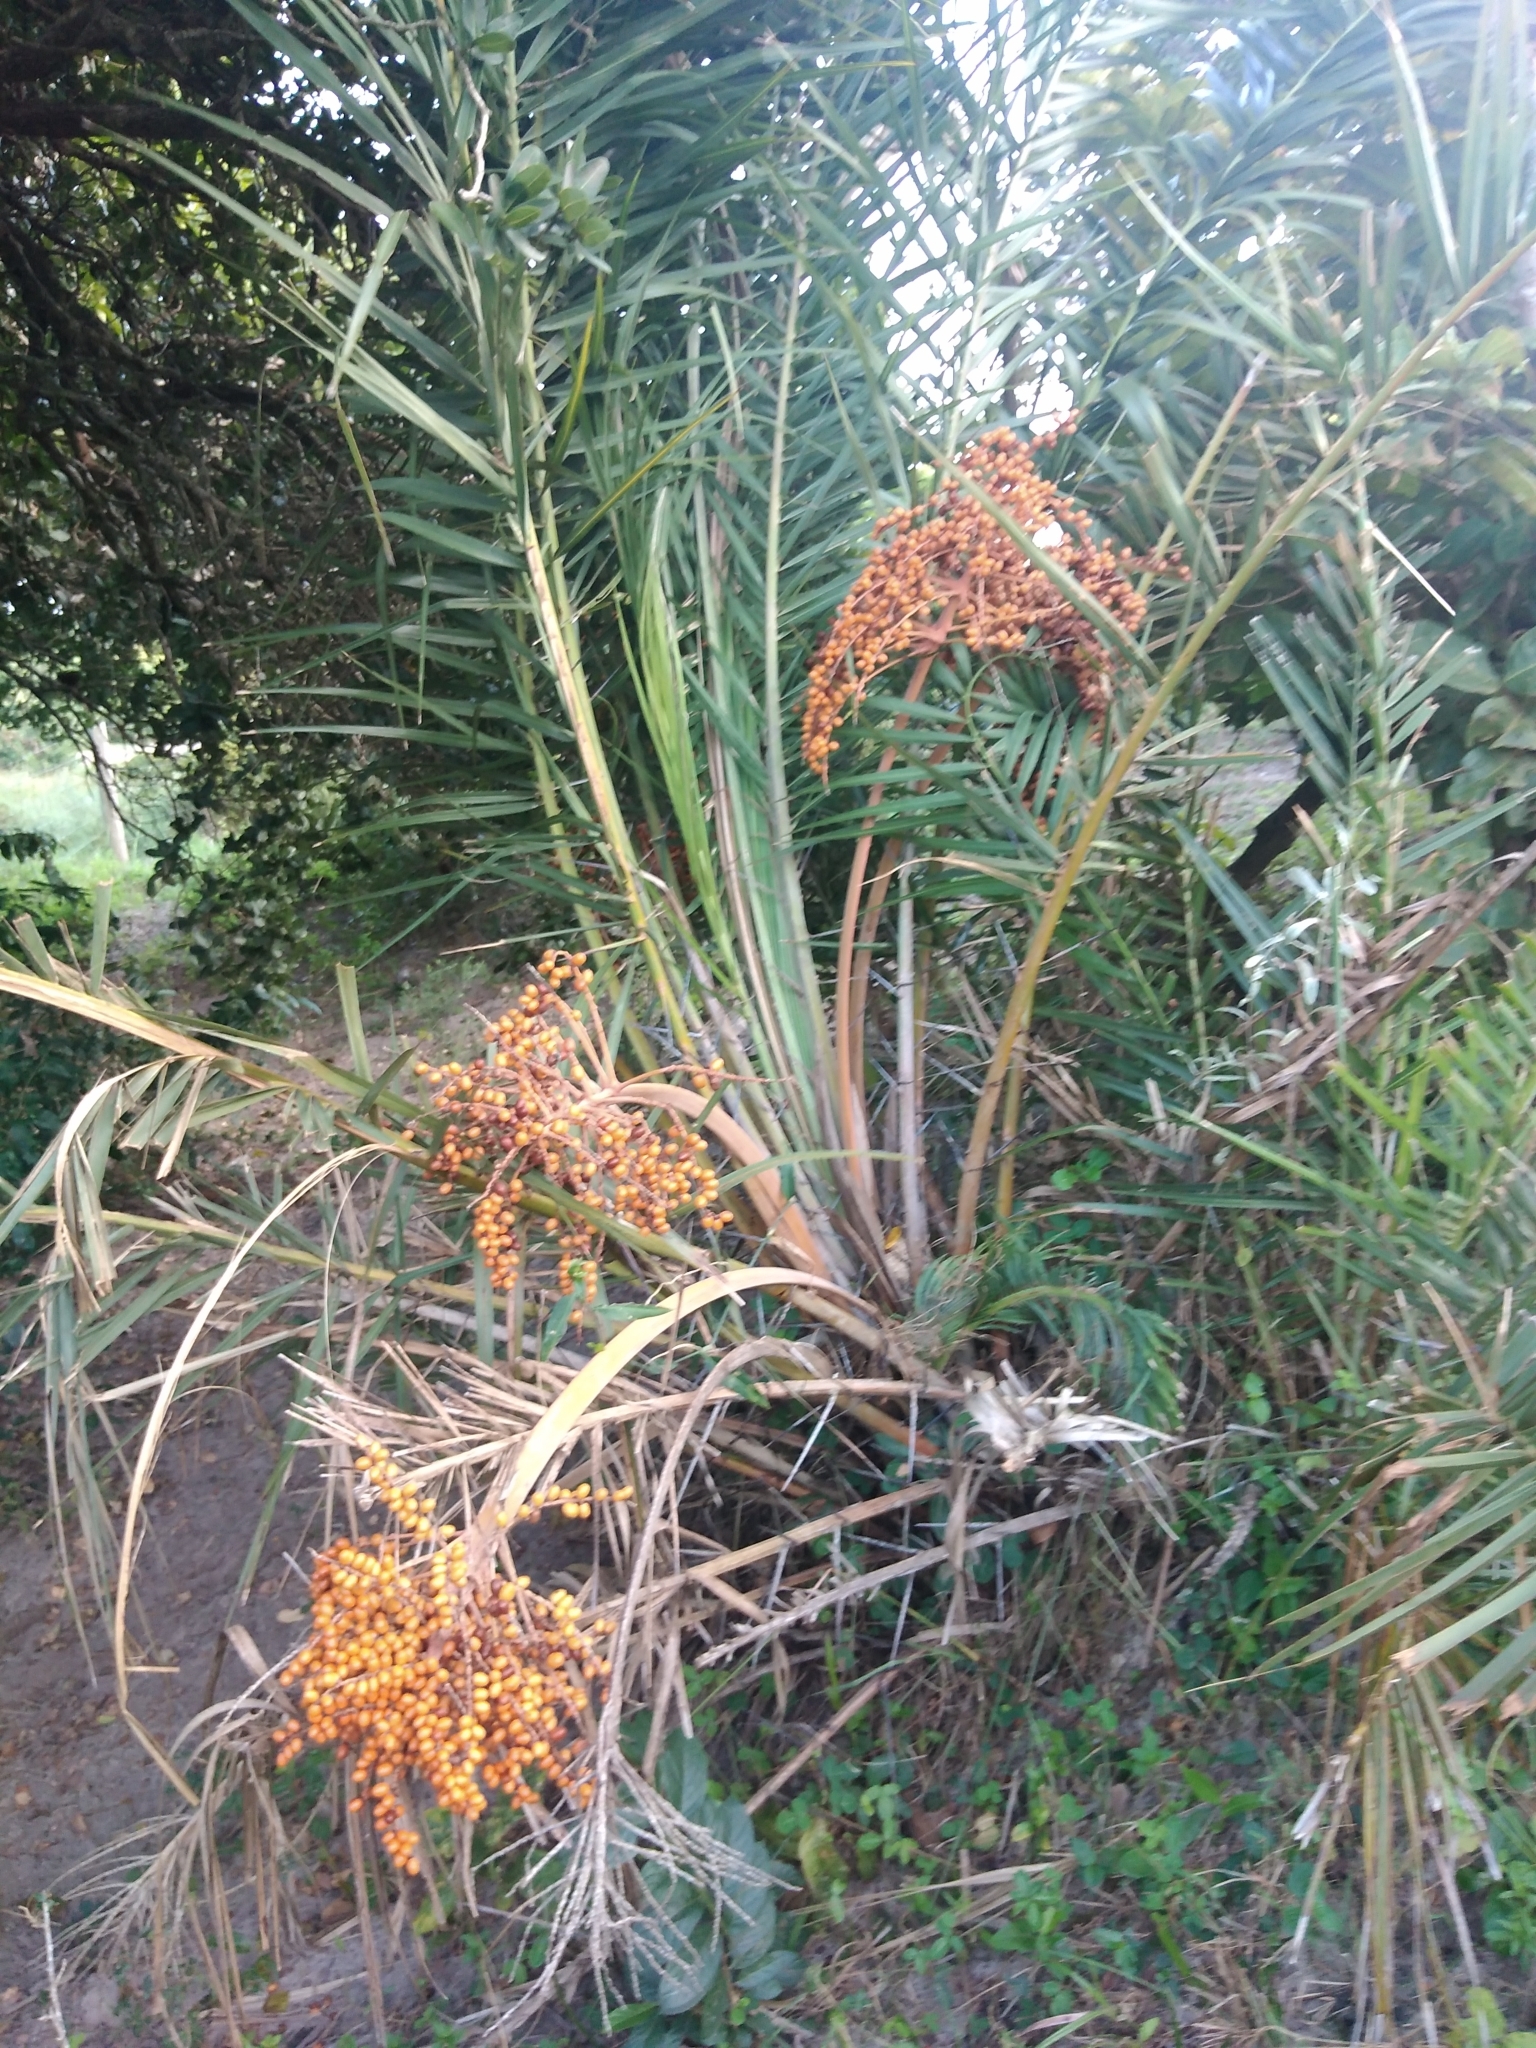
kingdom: Plantae
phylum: Tracheophyta
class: Liliopsida
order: Arecales
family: Arecaceae
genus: Phoenix
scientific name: Phoenix reclinata
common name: Senegal date palm
